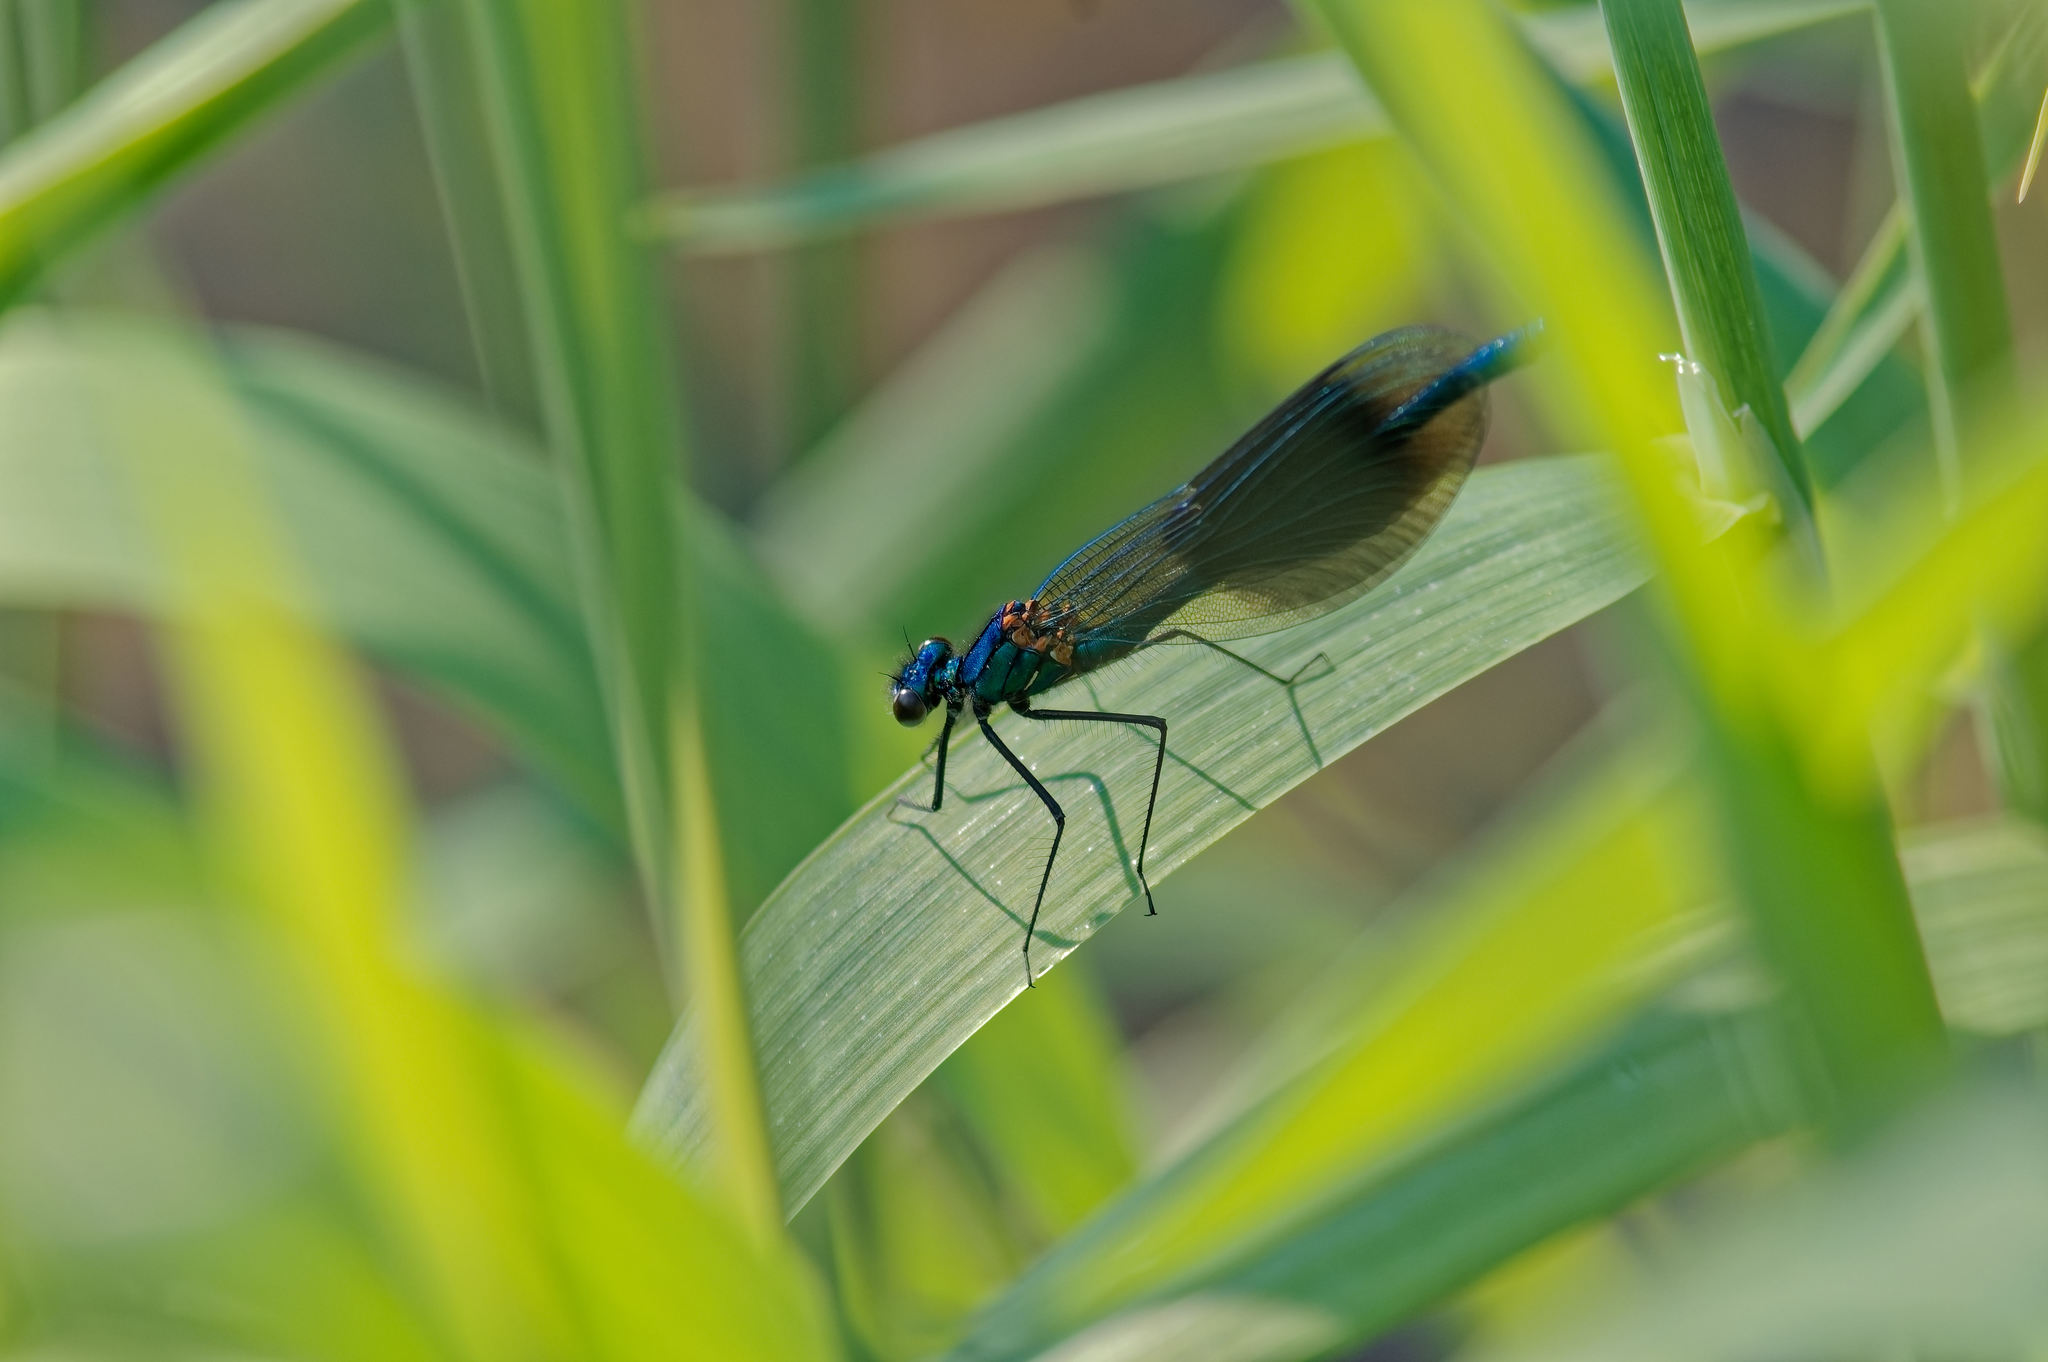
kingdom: Animalia
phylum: Arthropoda
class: Insecta
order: Odonata
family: Calopterygidae
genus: Calopteryx
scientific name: Calopteryx splendens
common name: Banded demoiselle
